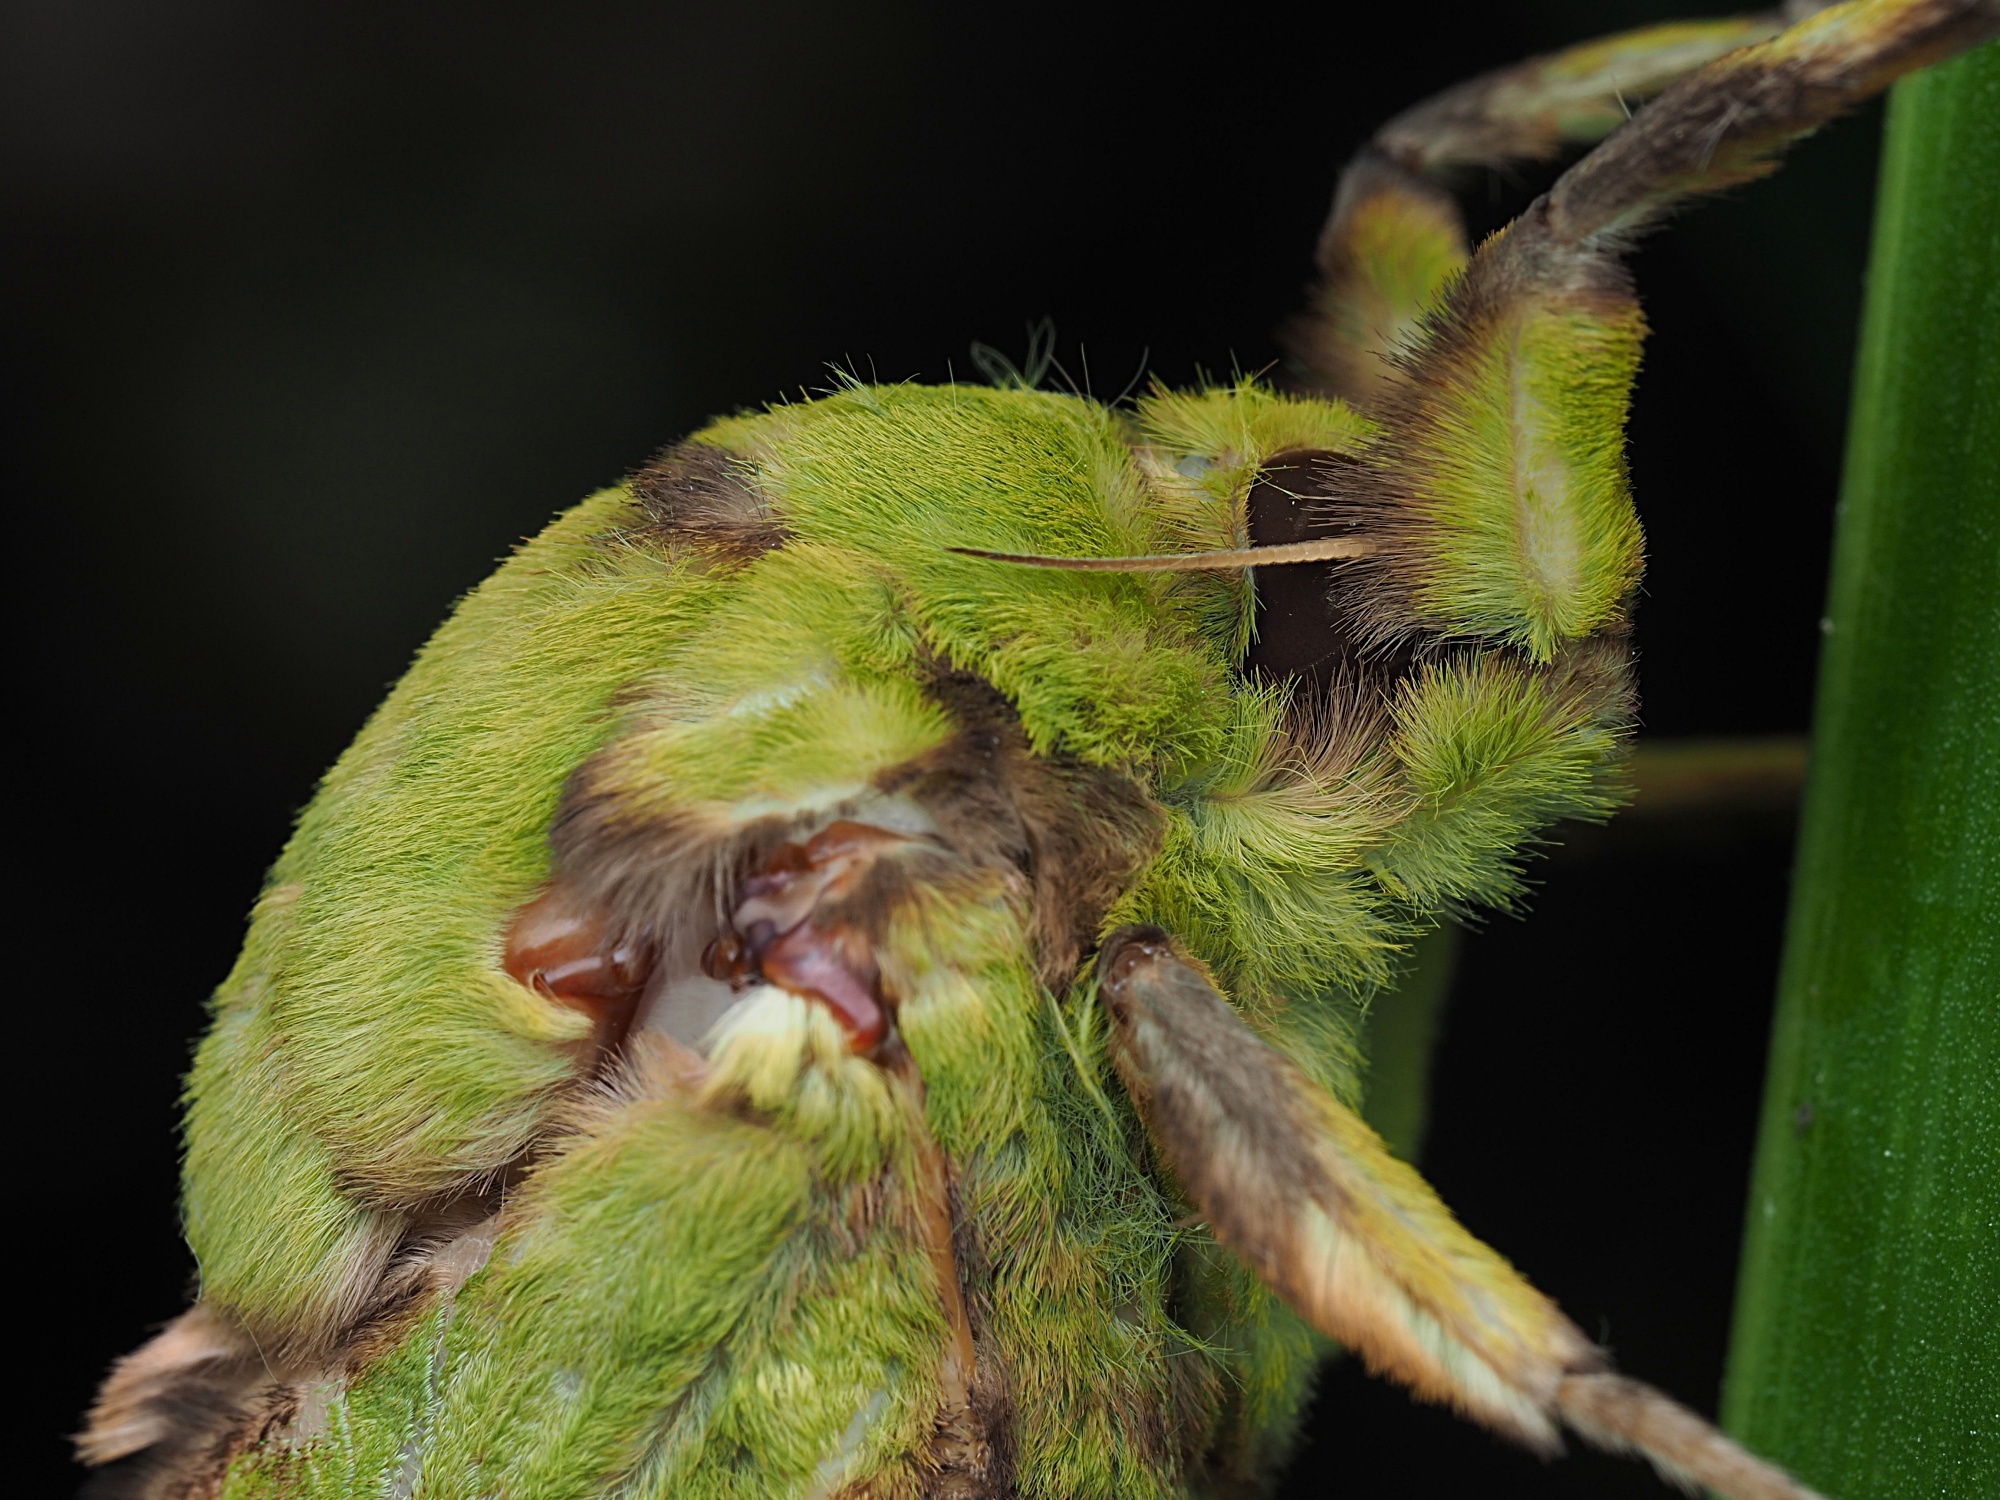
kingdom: Animalia
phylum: Arthropoda
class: Insecta
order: Lepidoptera
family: Hepialidae
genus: Aenetus
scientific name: Aenetus virescens
